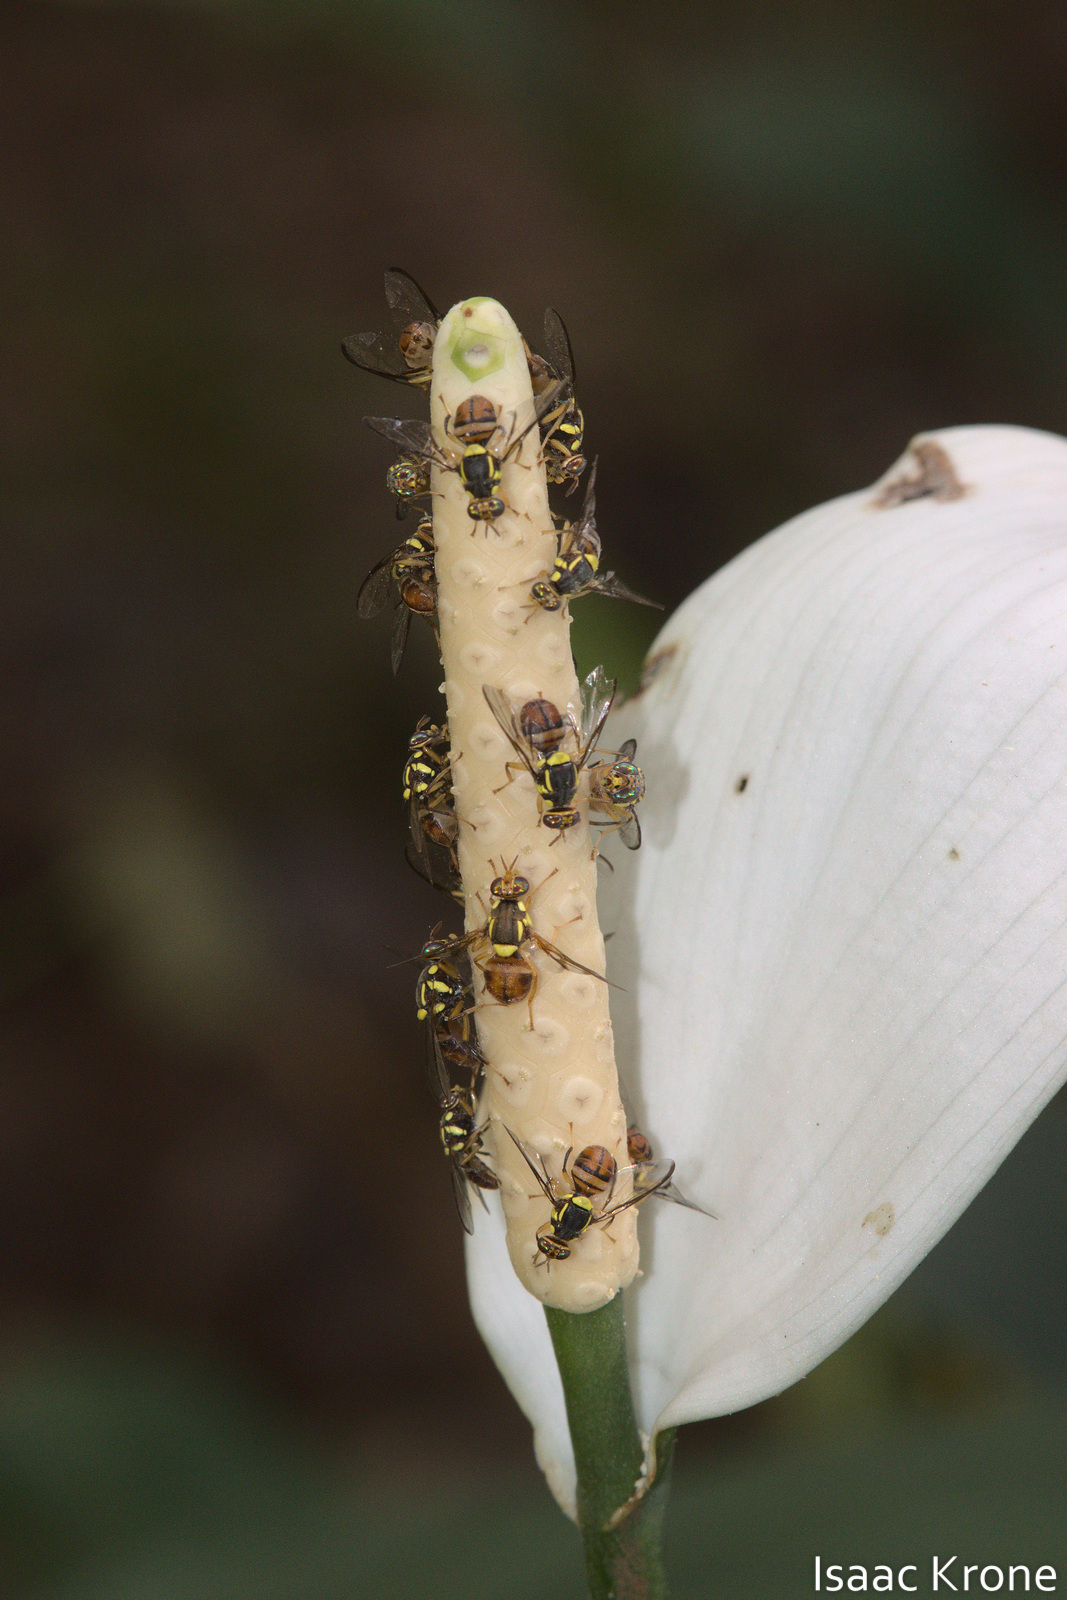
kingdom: Animalia
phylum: Arthropoda
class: Insecta
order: Diptera
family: Tephritidae
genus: Bactrocera
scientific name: Bactrocera dorsalis
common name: Oriental fruit fly
